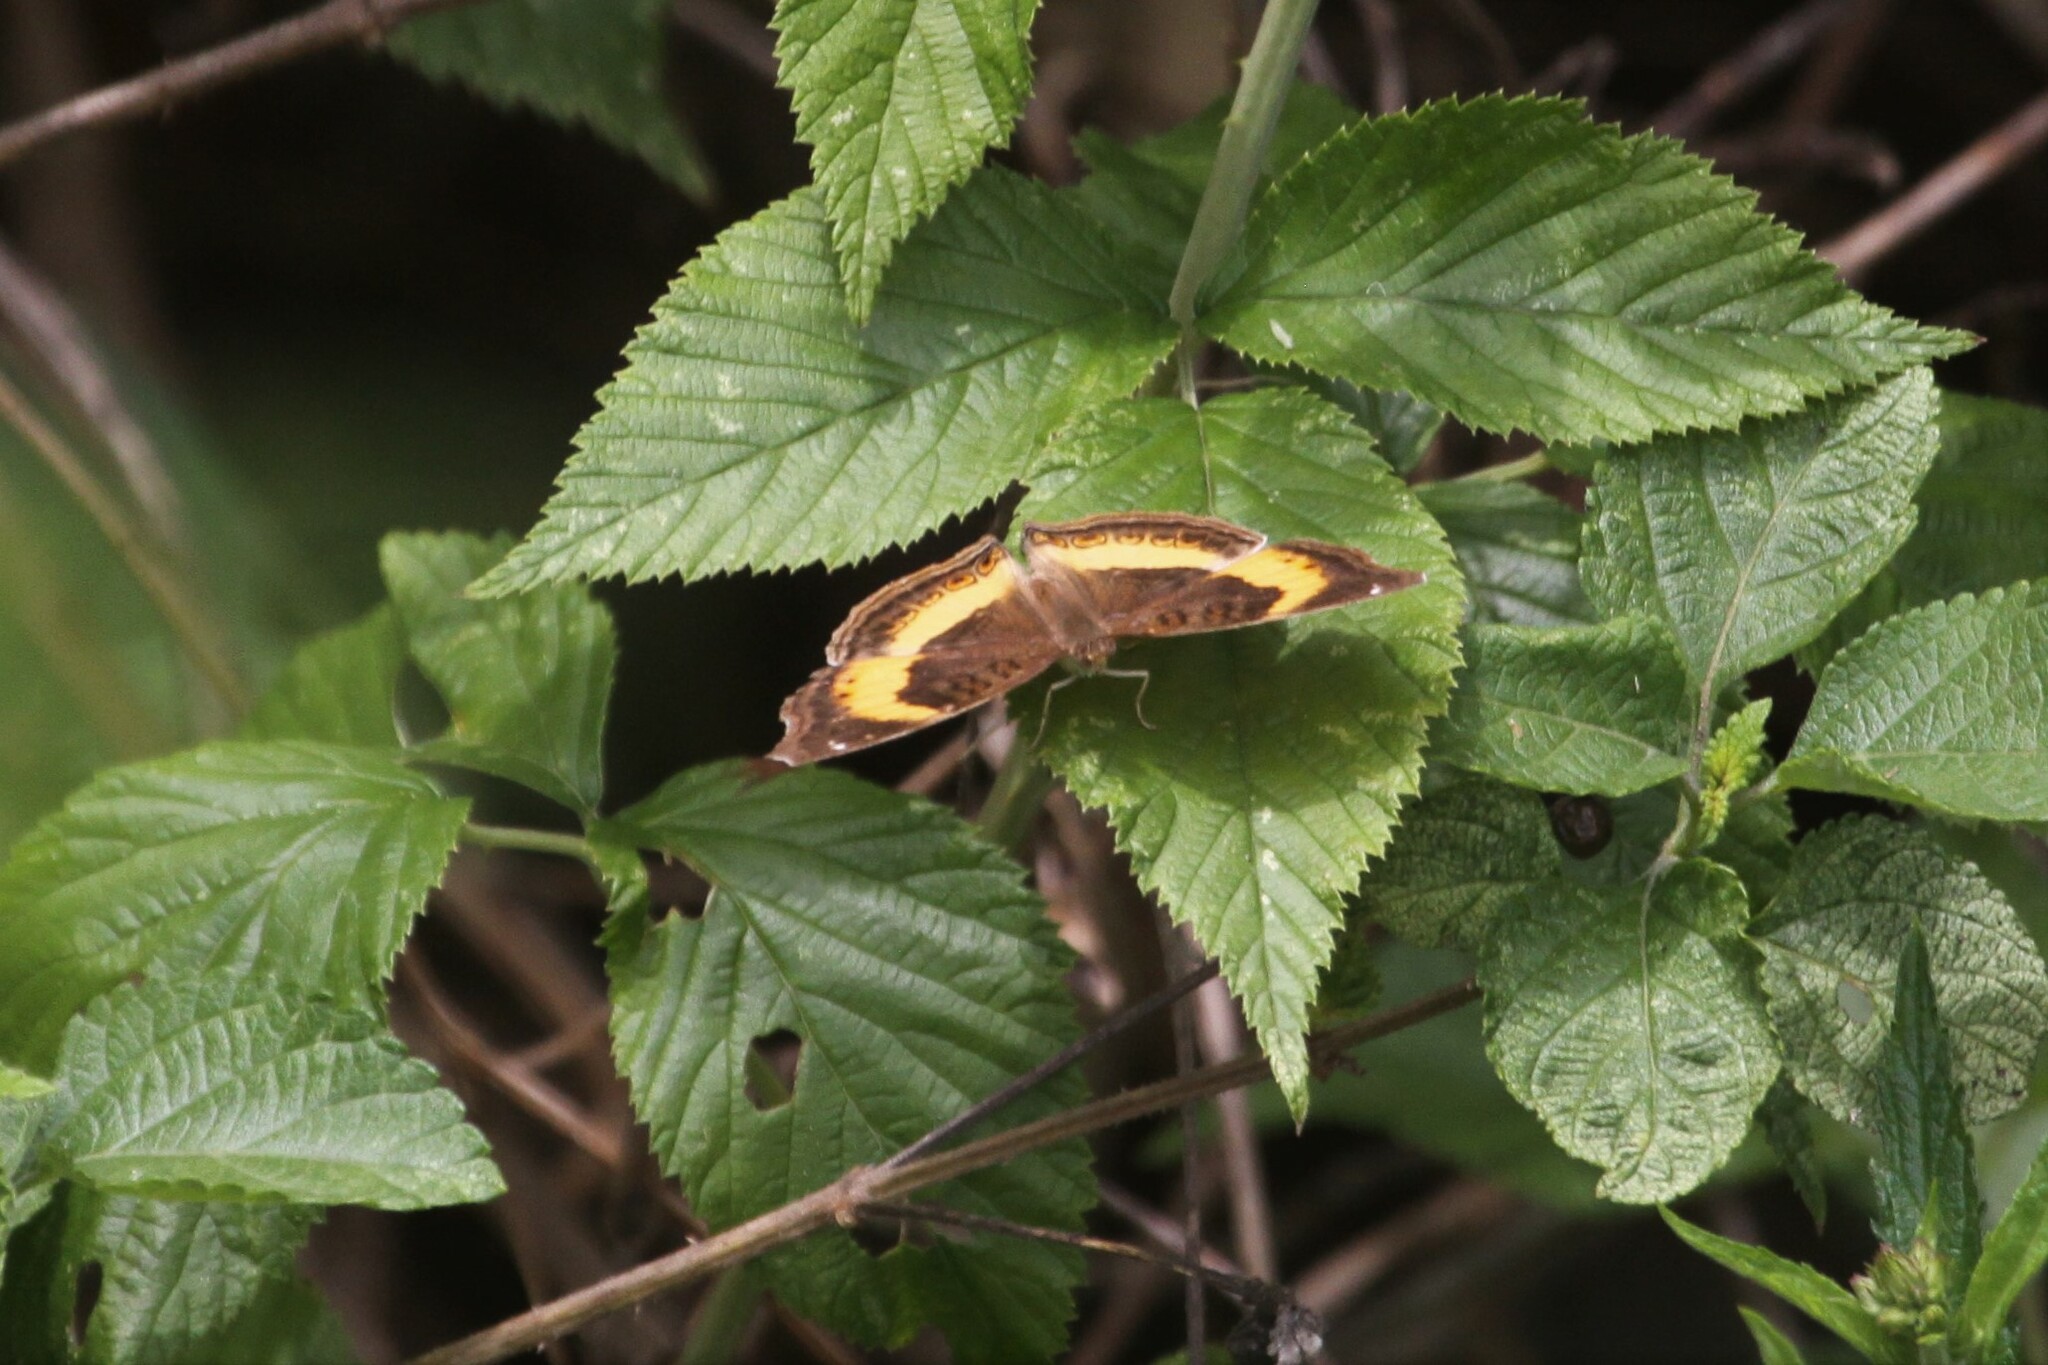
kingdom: Animalia
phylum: Arthropoda
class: Insecta
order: Lepidoptera
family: Nymphalidae
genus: Junonia
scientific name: Junonia terea
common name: Soldier pansy
